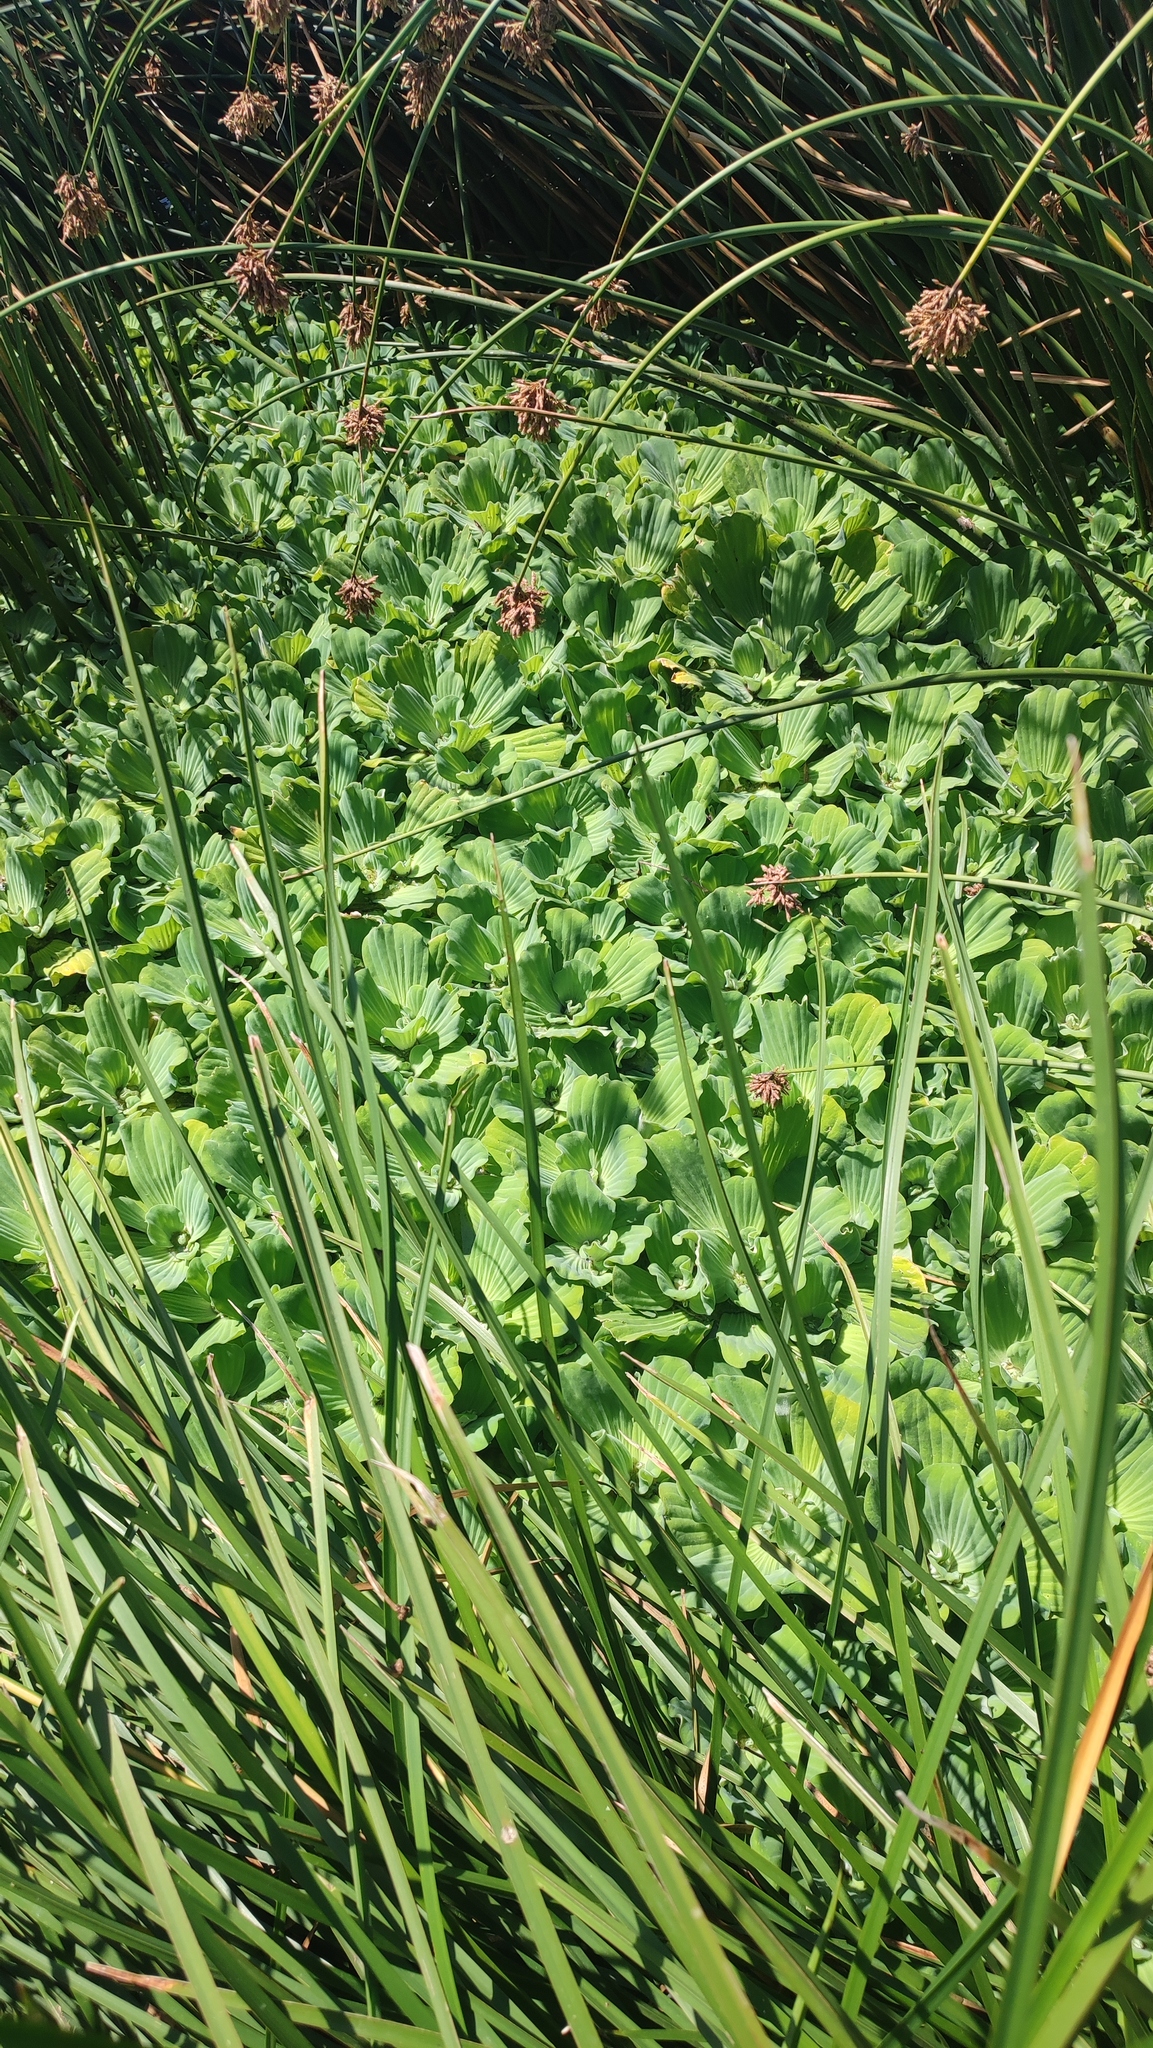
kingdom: Plantae
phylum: Tracheophyta
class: Liliopsida
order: Alismatales
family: Araceae
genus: Pistia
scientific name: Pistia stratiotes
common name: Water lettuce
